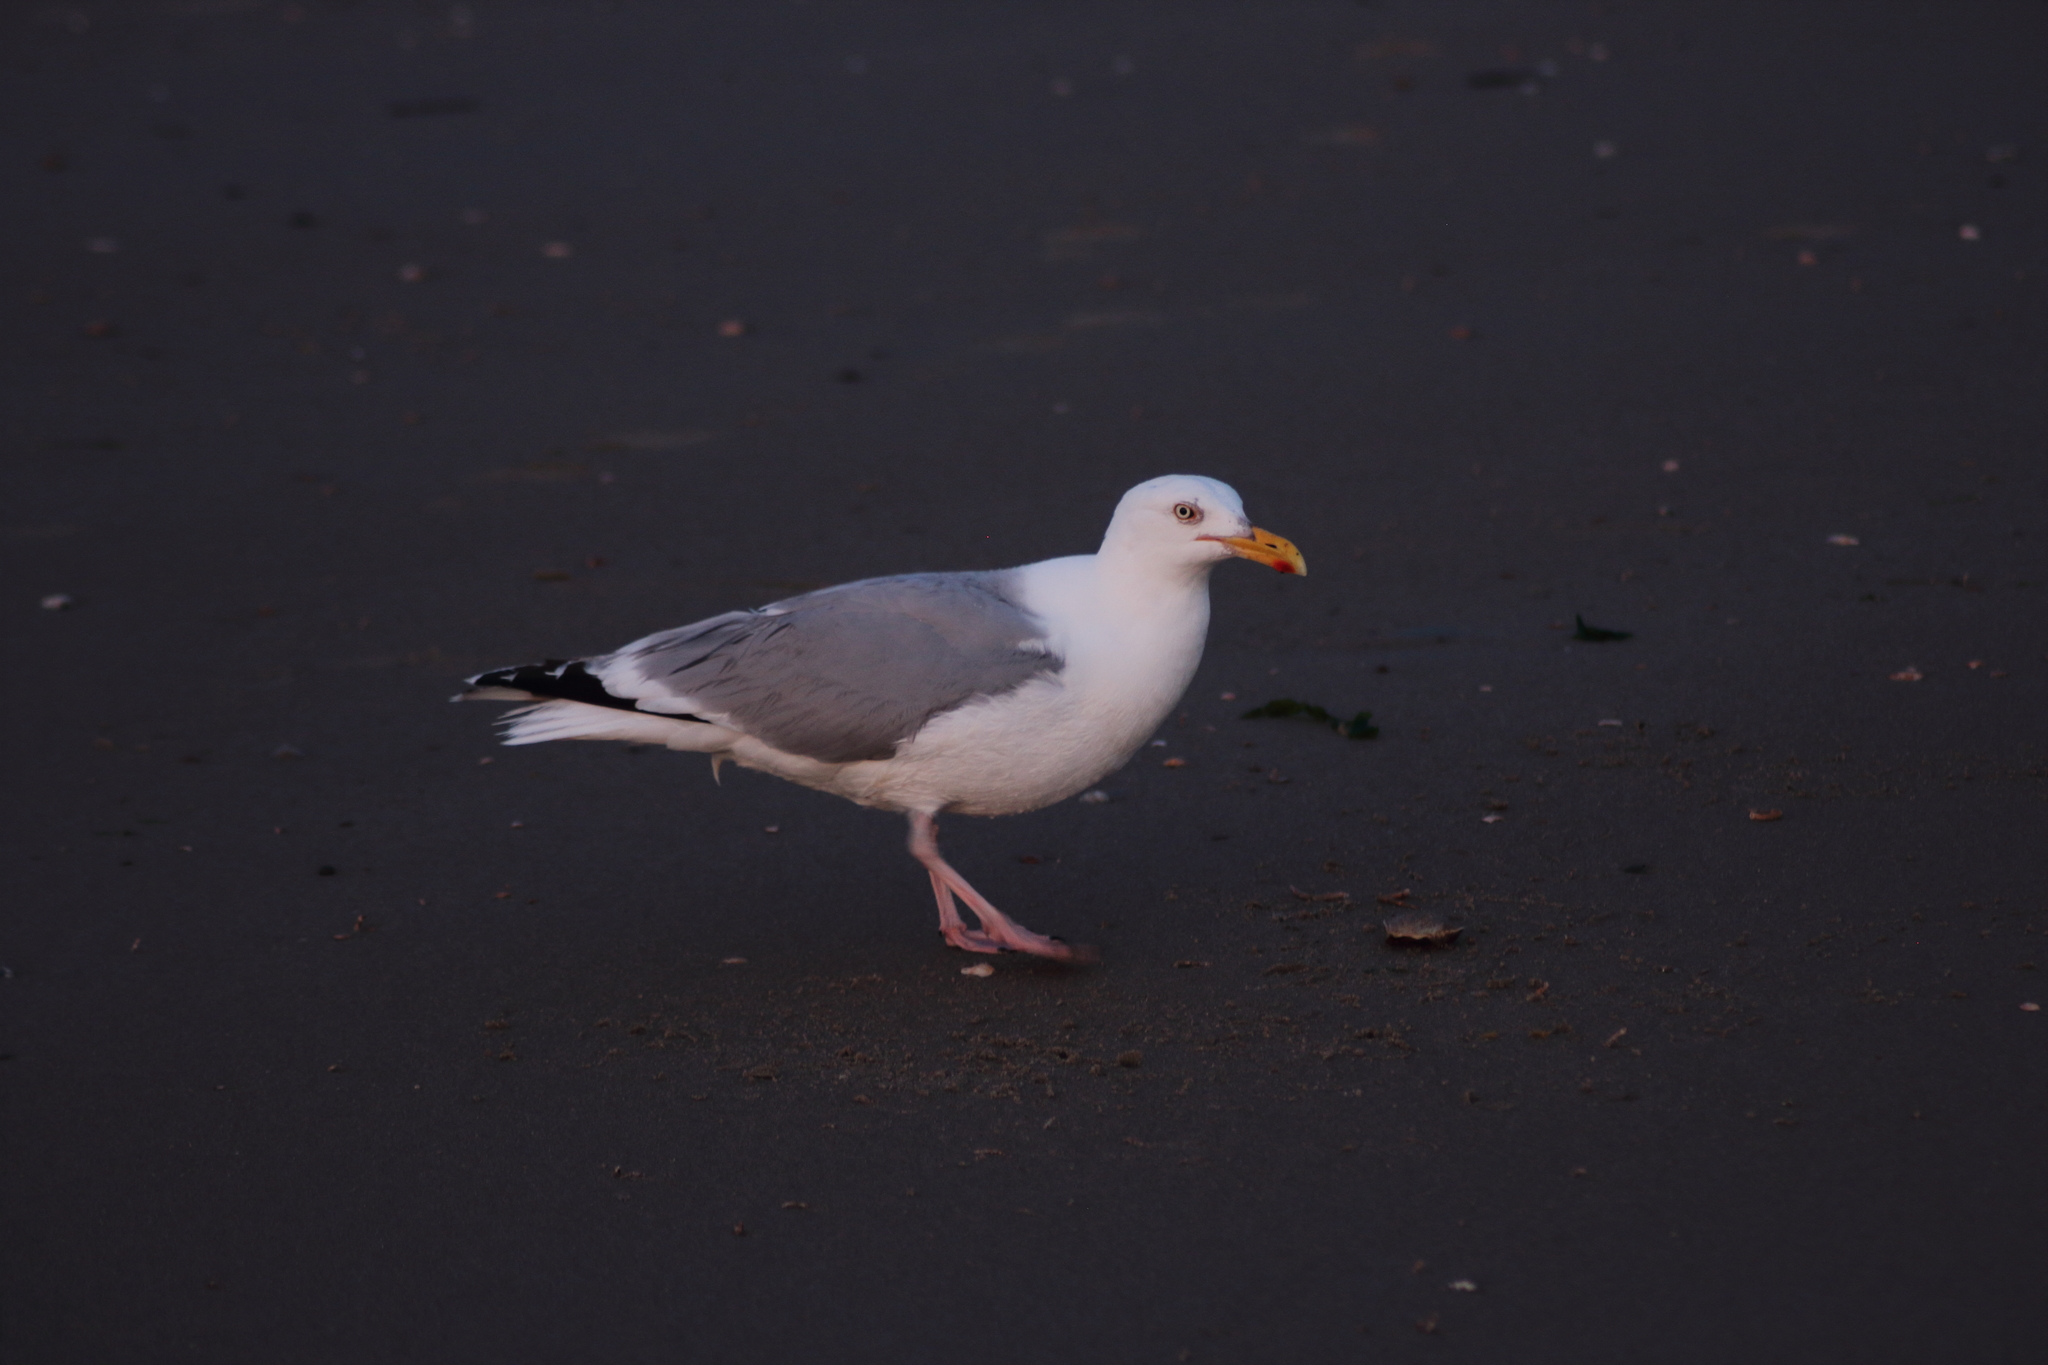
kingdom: Animalia
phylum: Chordata
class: Aves
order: Charadriiformes
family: Laridae
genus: Larus
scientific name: Larus argentatus
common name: Herring gull
